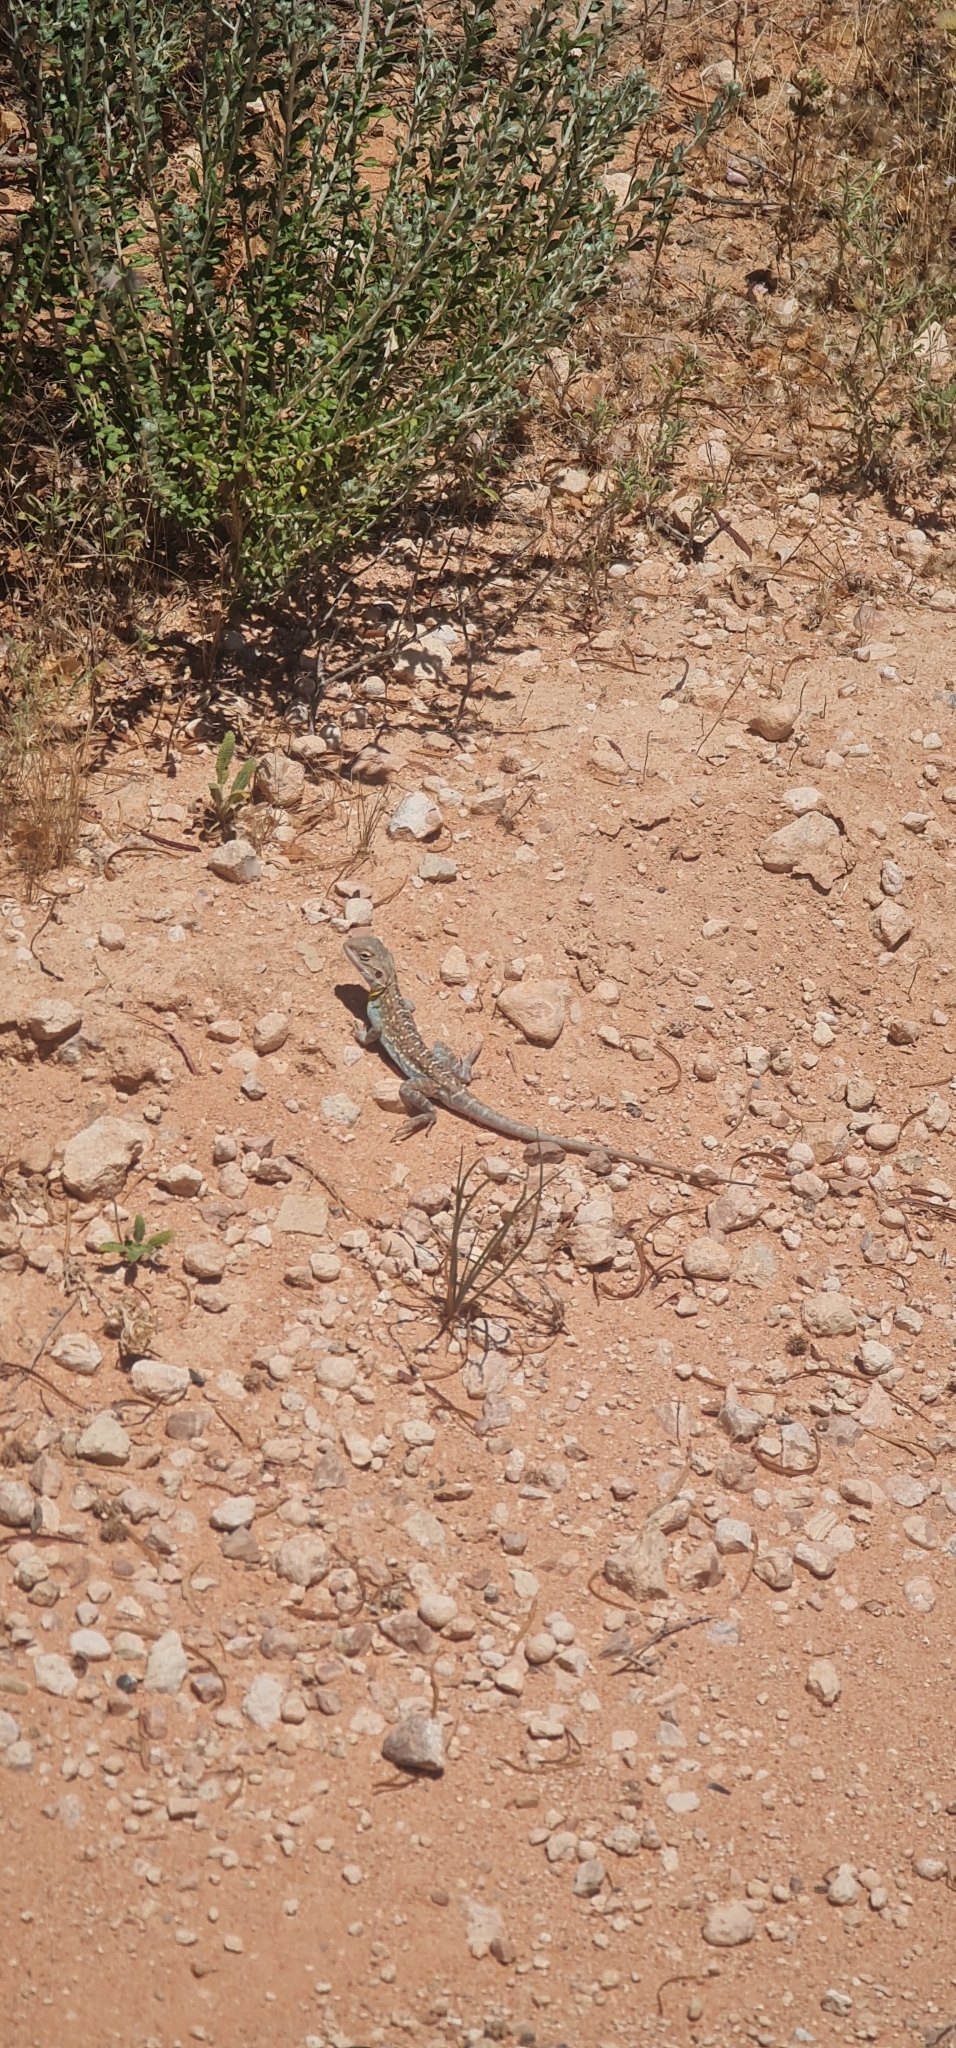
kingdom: Animalia
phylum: Chordata
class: Squamata
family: Agamidae
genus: Ctenophorus
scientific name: Ctenophorus pictus
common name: Painted dragon
